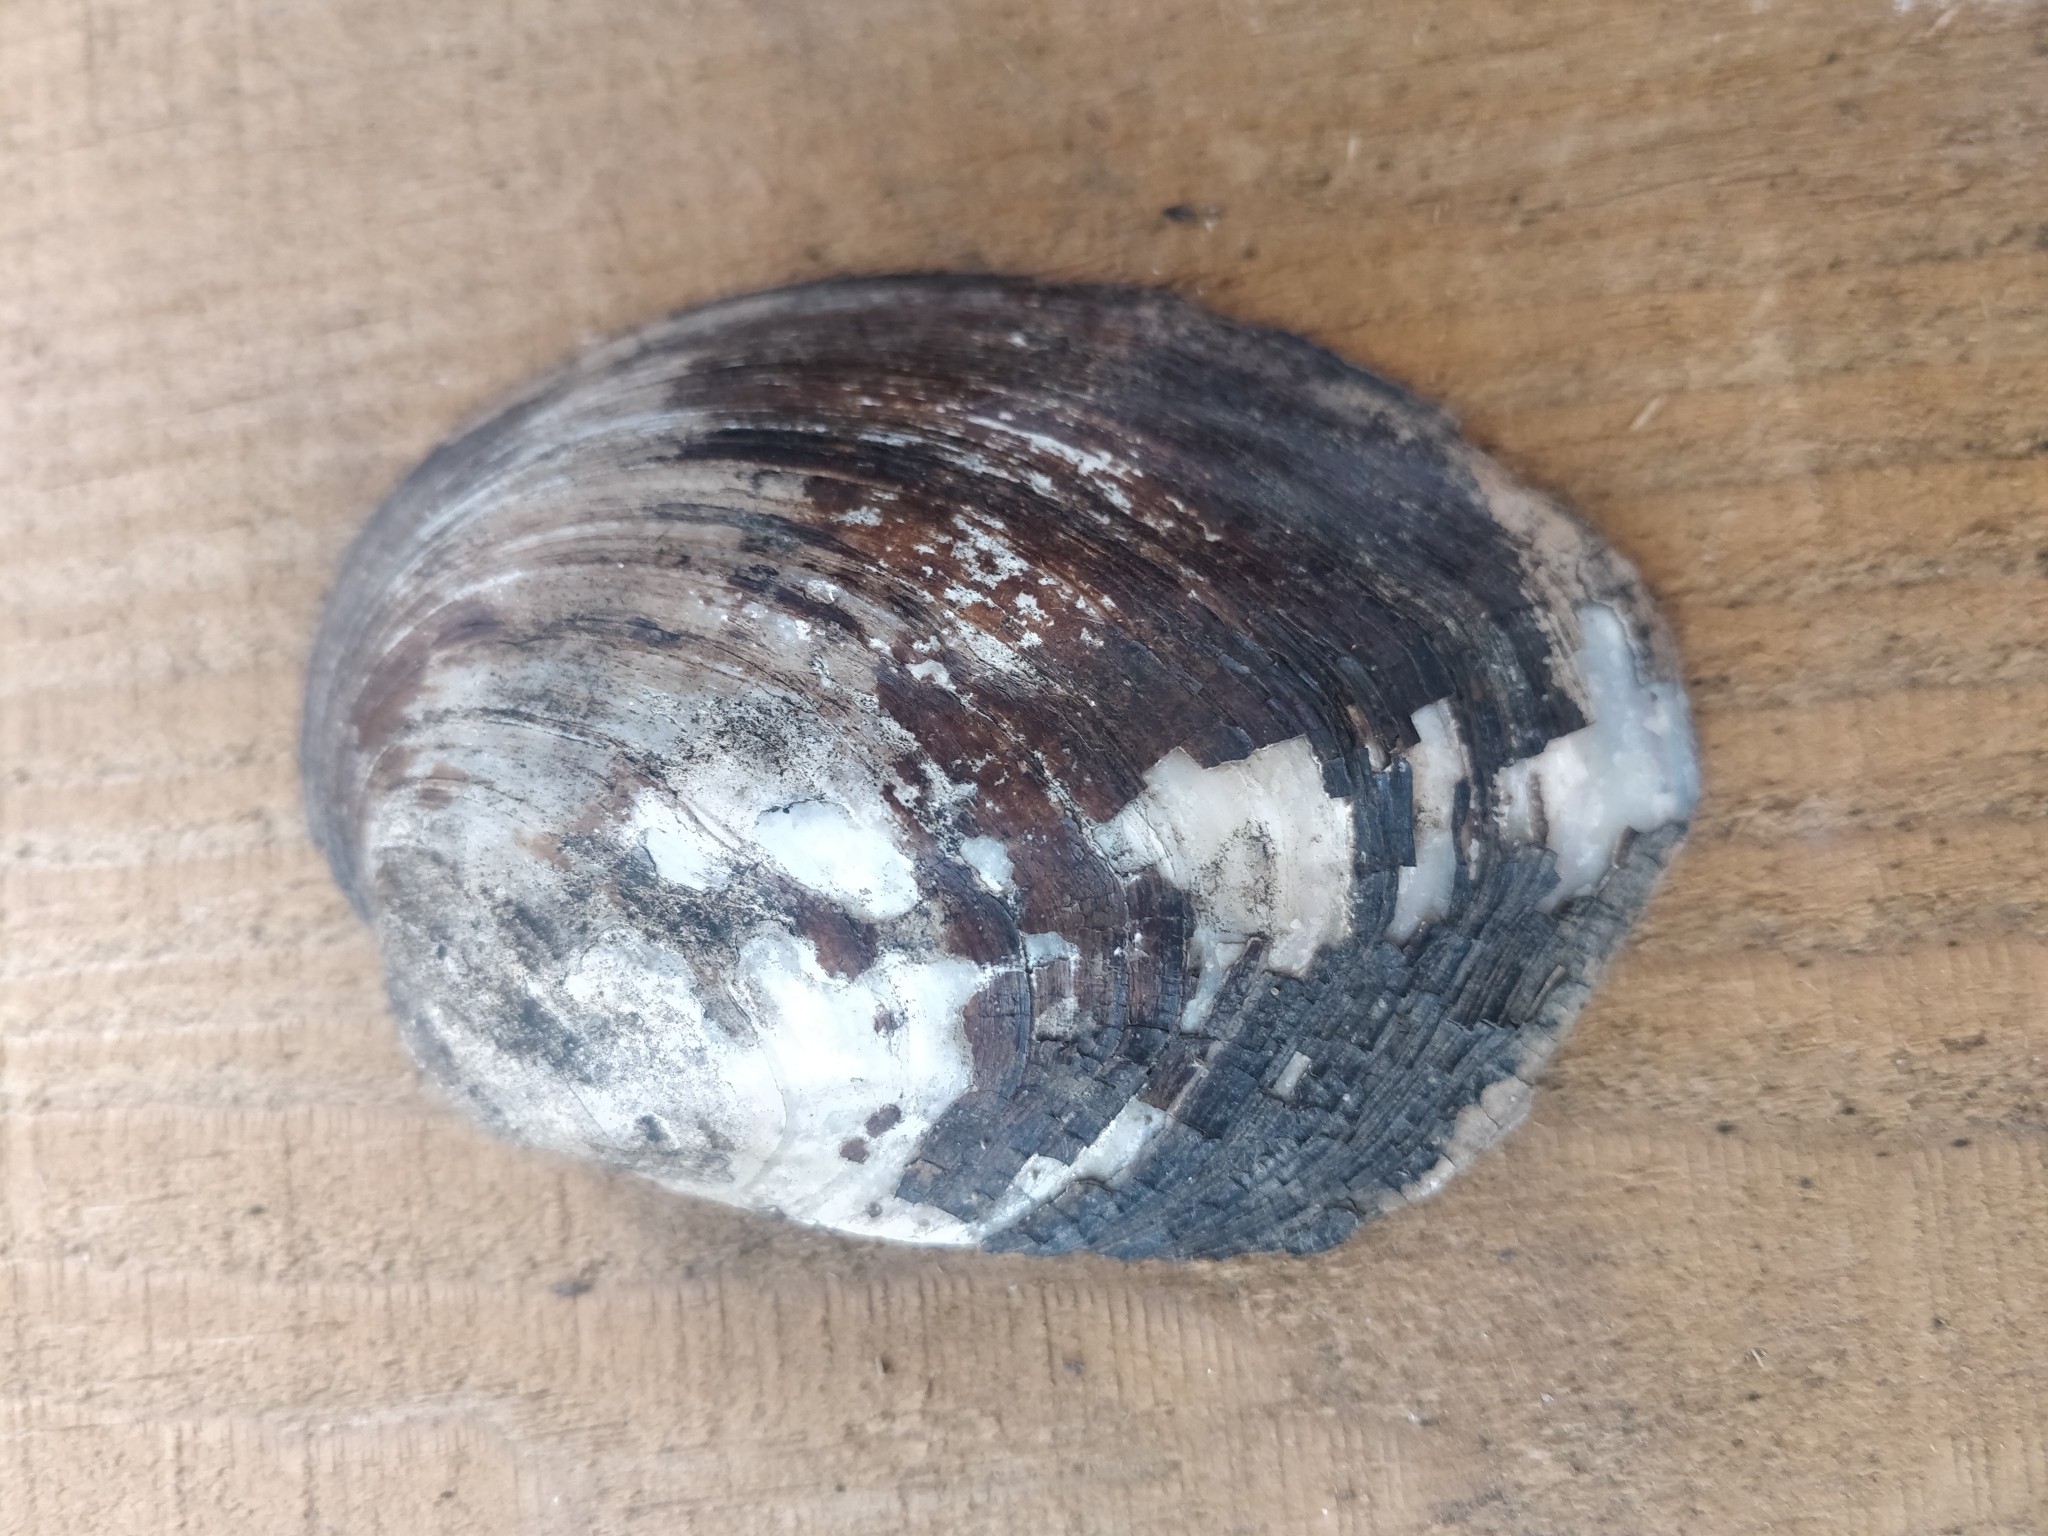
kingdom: Animalia
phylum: Mollusca
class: Bivalvia
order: Unionida
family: Unionidae
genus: Amblema
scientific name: Amblema plicata
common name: Threeridge
